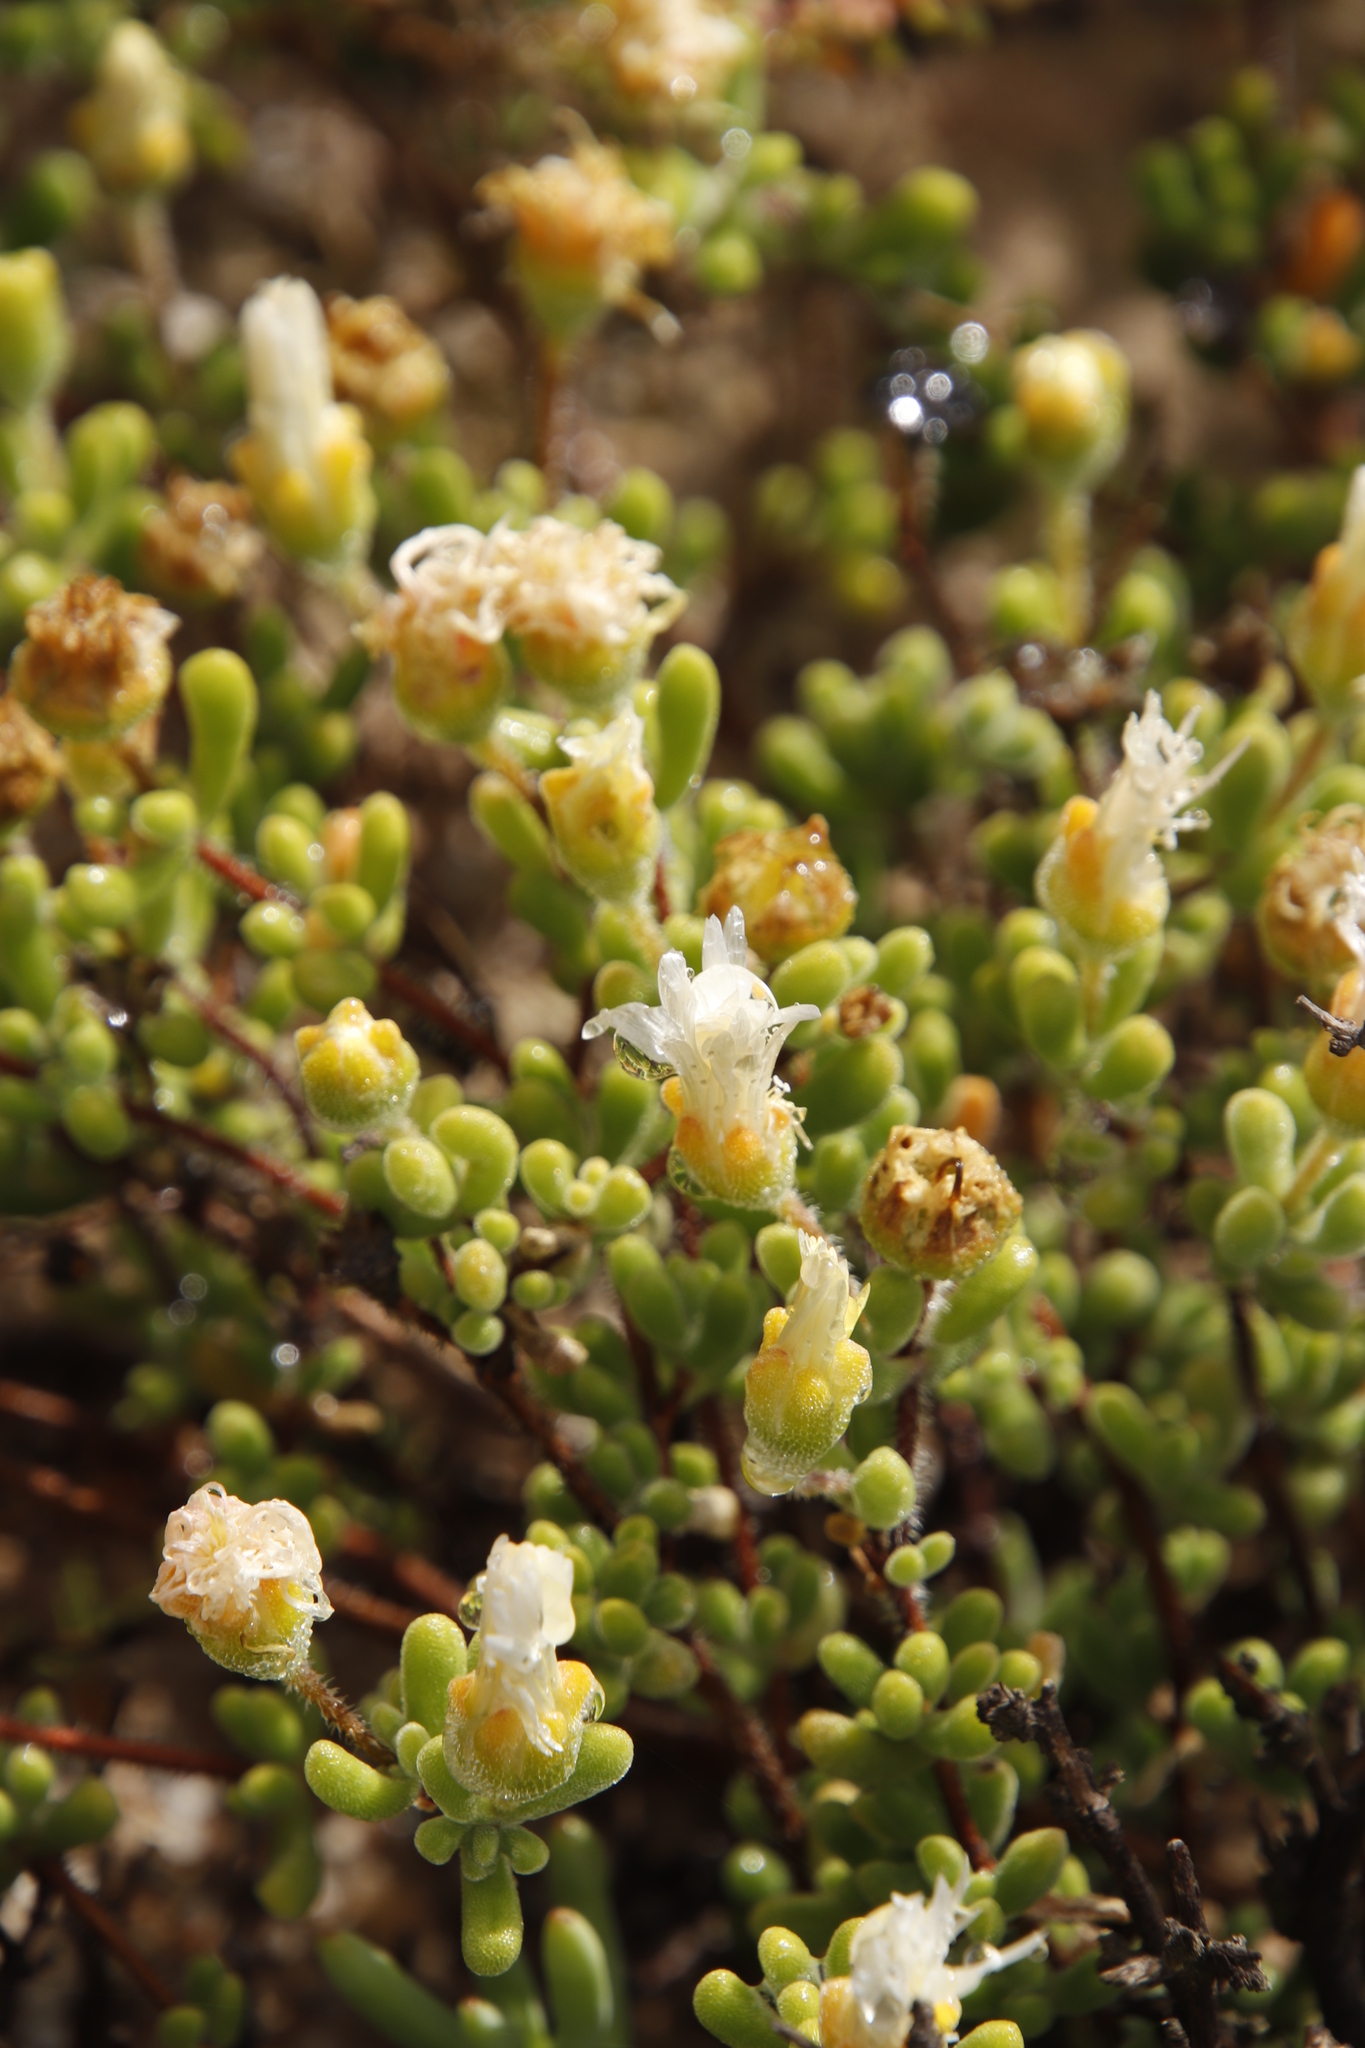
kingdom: Plantae
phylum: Tracheophyta
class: Magnoliopsida
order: Caryophyllales
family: Aizoaceae
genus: Drosanthemum
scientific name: Drosanthemum schoenlandianum
